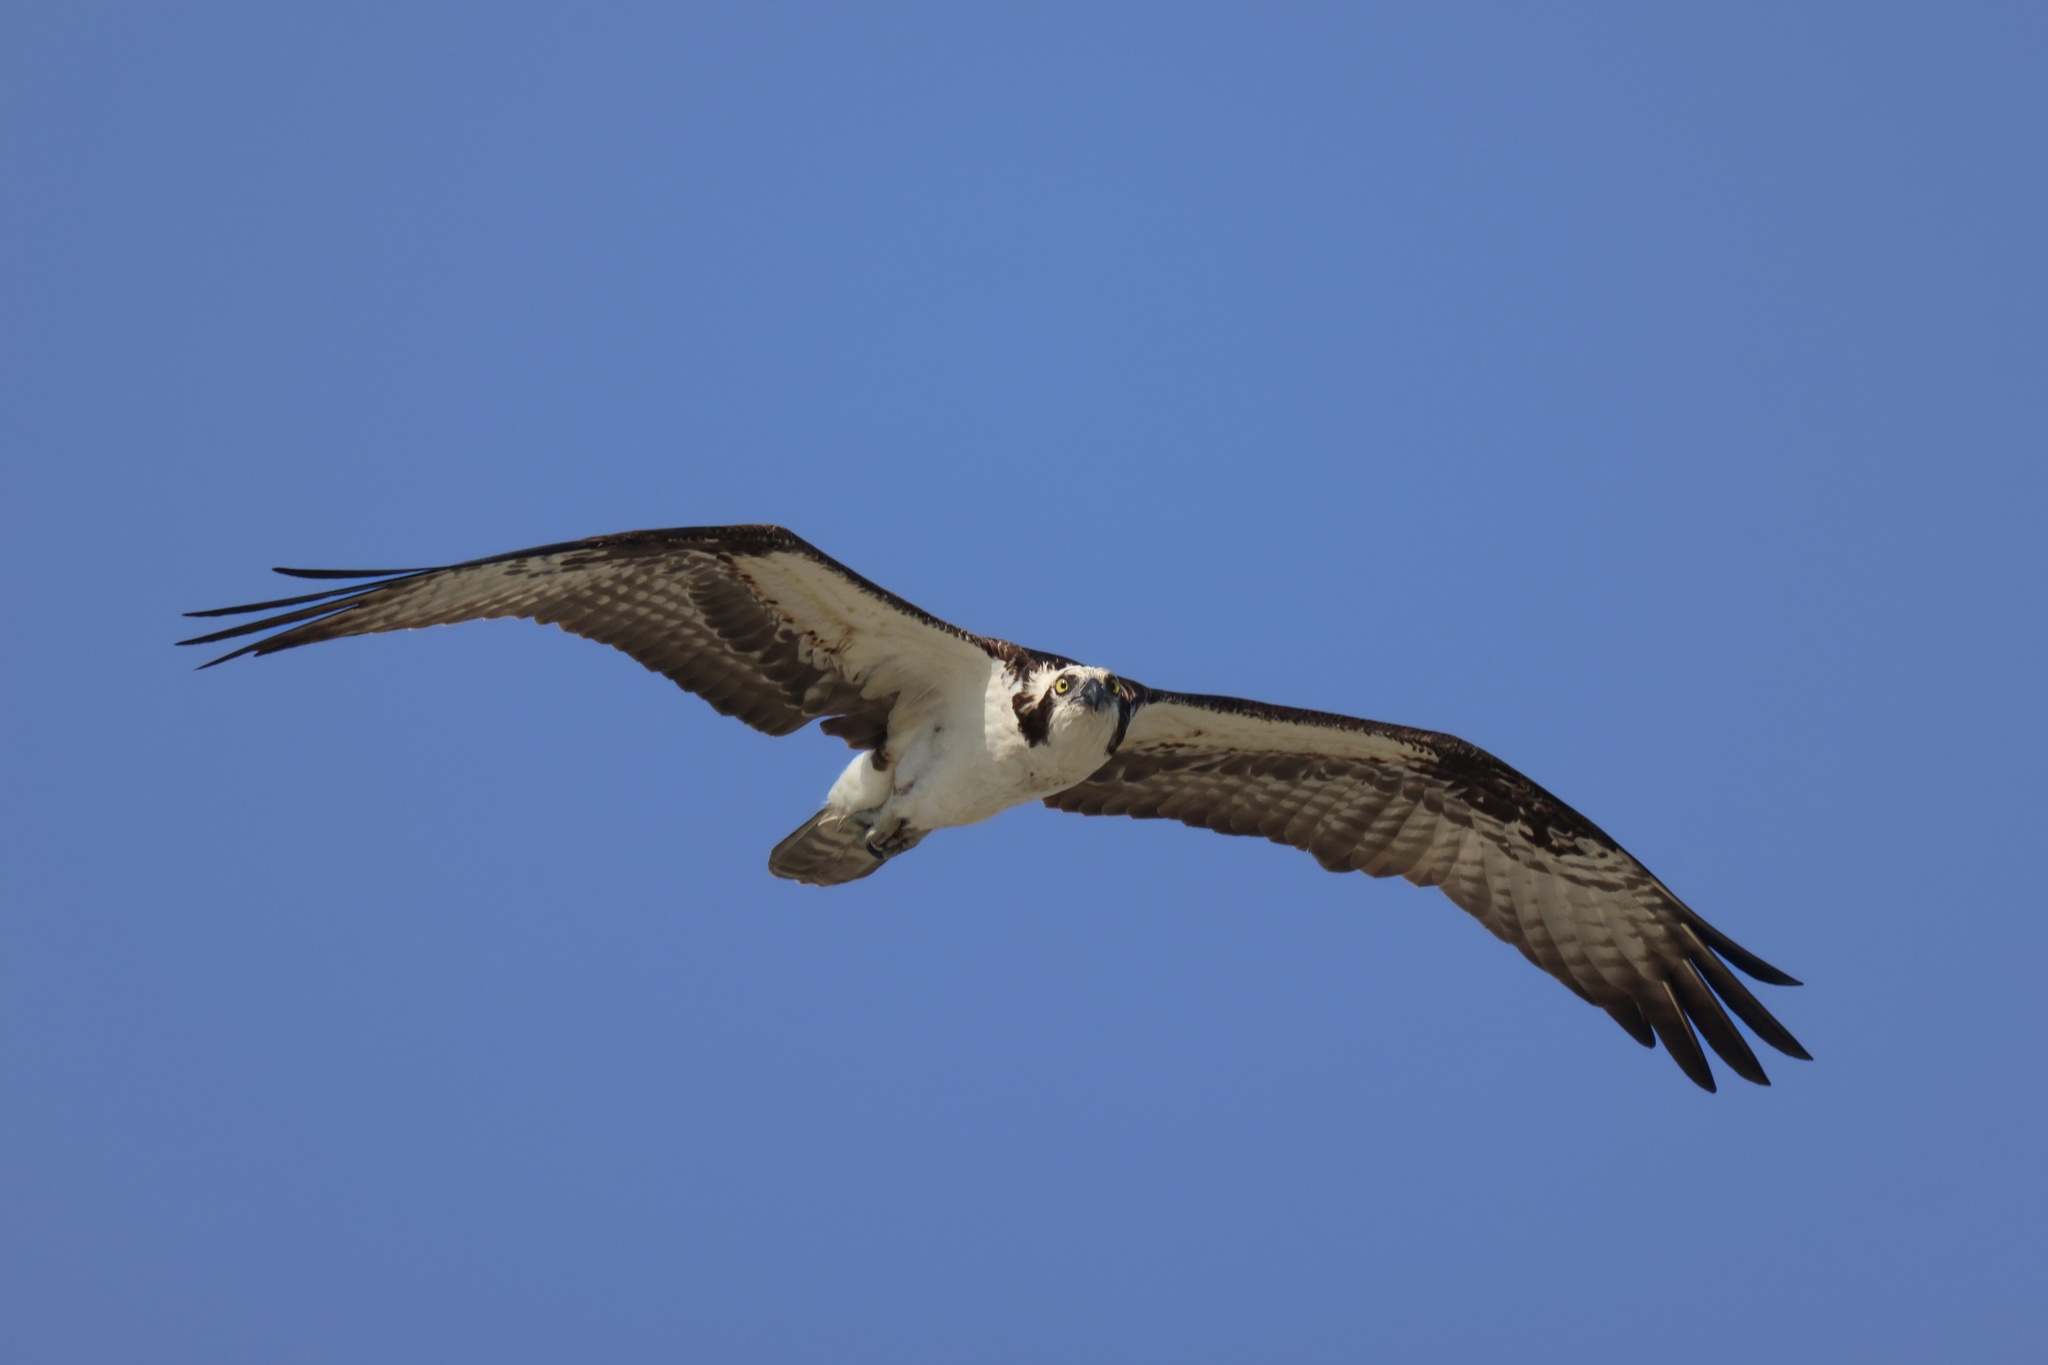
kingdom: Animalia
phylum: Chordata
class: Aves
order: Accipitriformes
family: Pandionidae
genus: Pandion
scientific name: Pandion haliaetus
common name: Osprey
